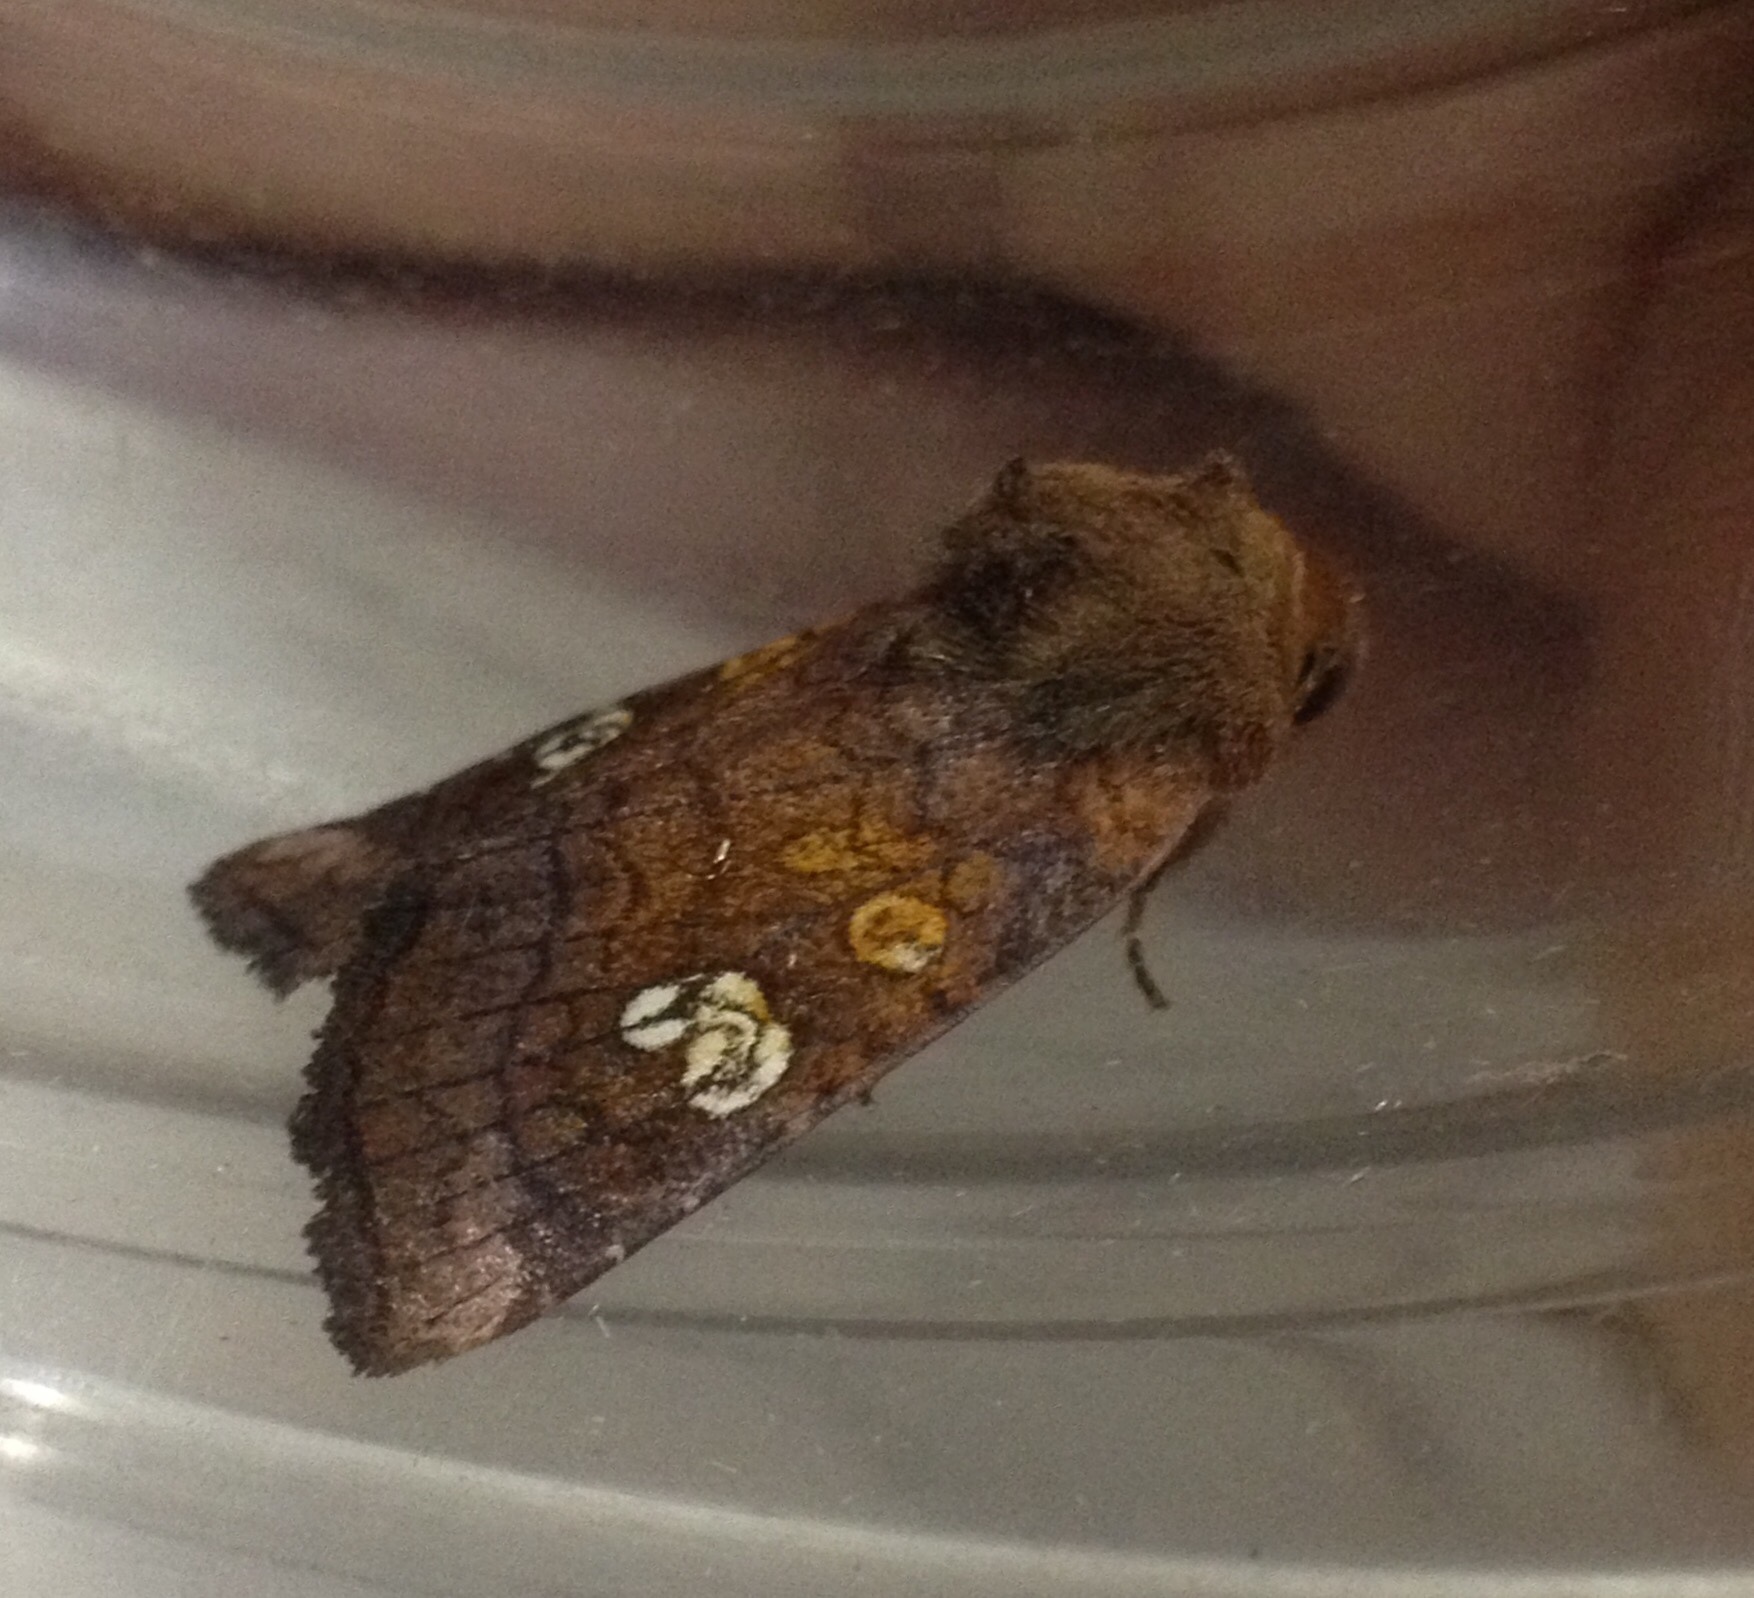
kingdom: Animalia
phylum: Arthropoda
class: Insecta
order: Lepidoptera
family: Noctuidae
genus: Amphipoea
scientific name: Amphipoea oculea
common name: Ear moth
